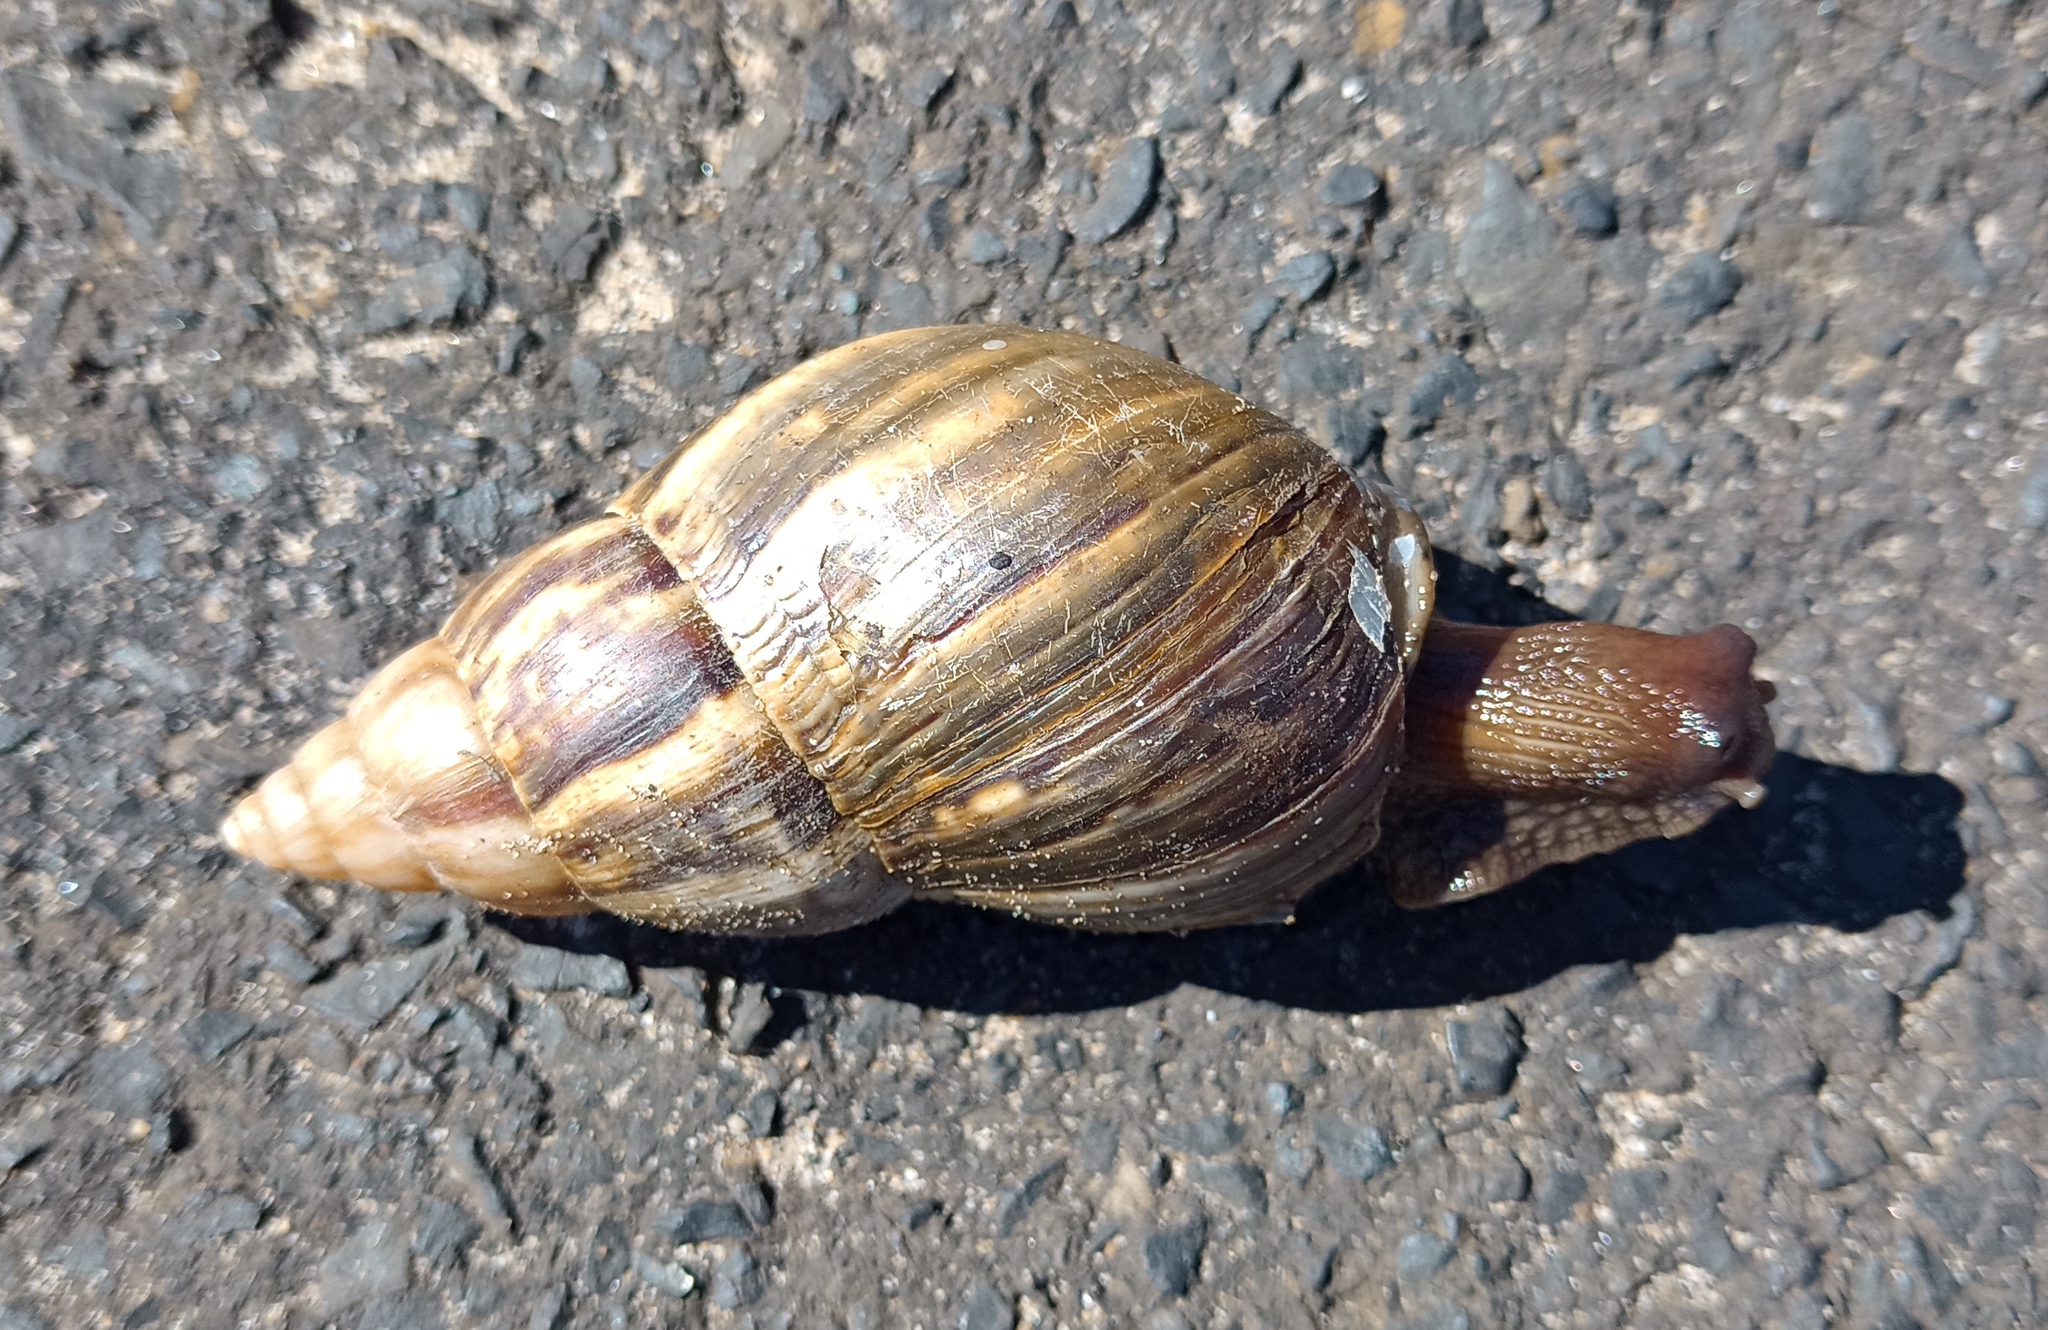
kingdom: Animalia
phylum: Mollusca
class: Gastropoda
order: Stylommatophora
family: Achatinidae
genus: Lissachatina
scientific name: Lissachatina fulica
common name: Giant african snail
